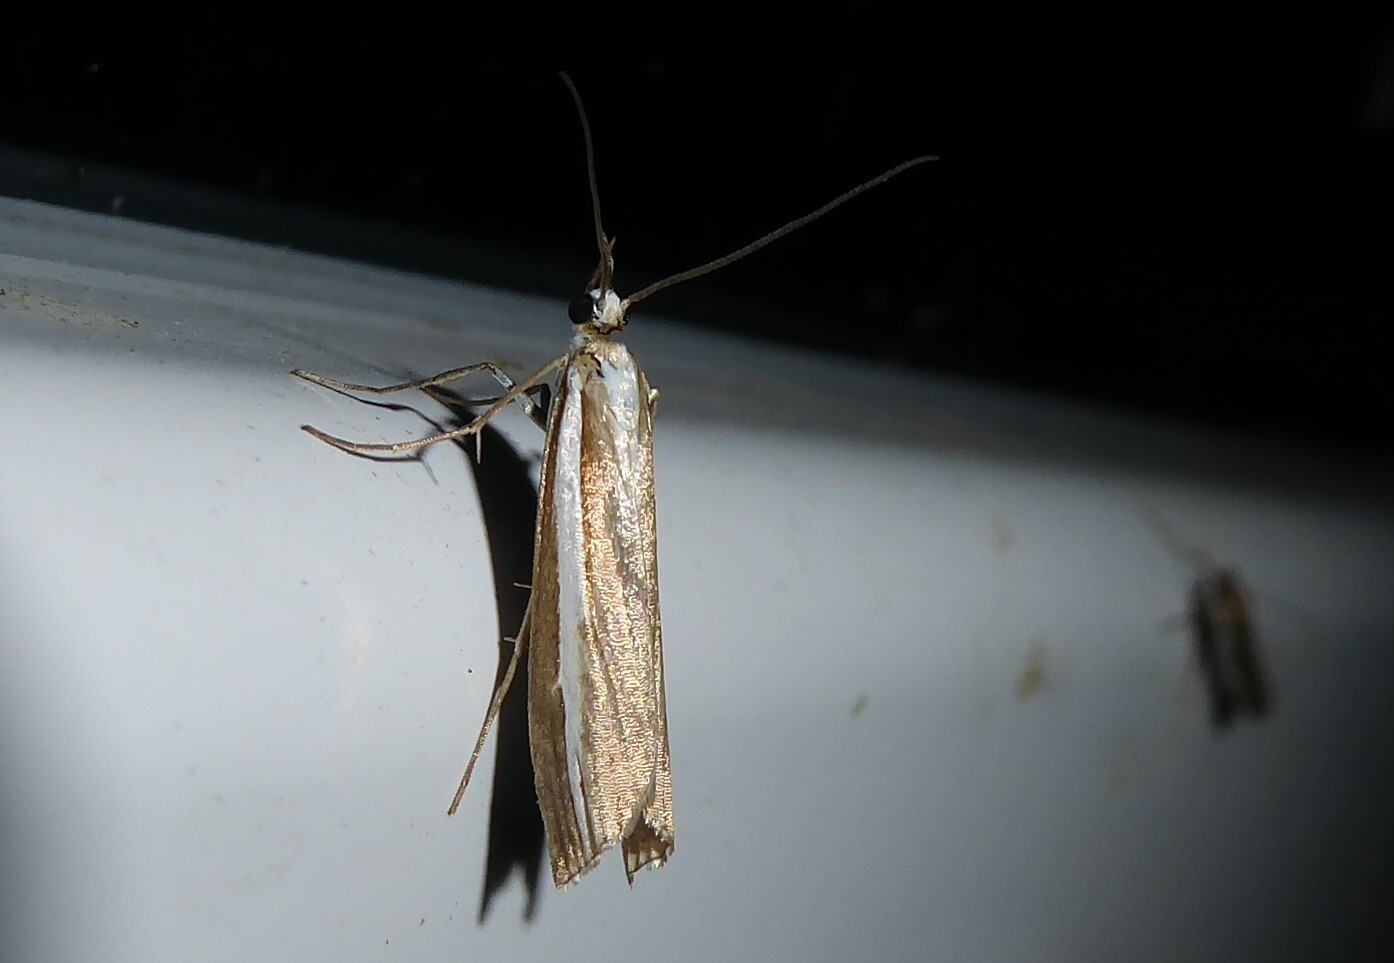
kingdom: Animalia
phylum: Arthropoda
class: Insecta
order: Lepidoptera
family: Crambidae
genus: Orocrambus
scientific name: Orocrambus vittellus
